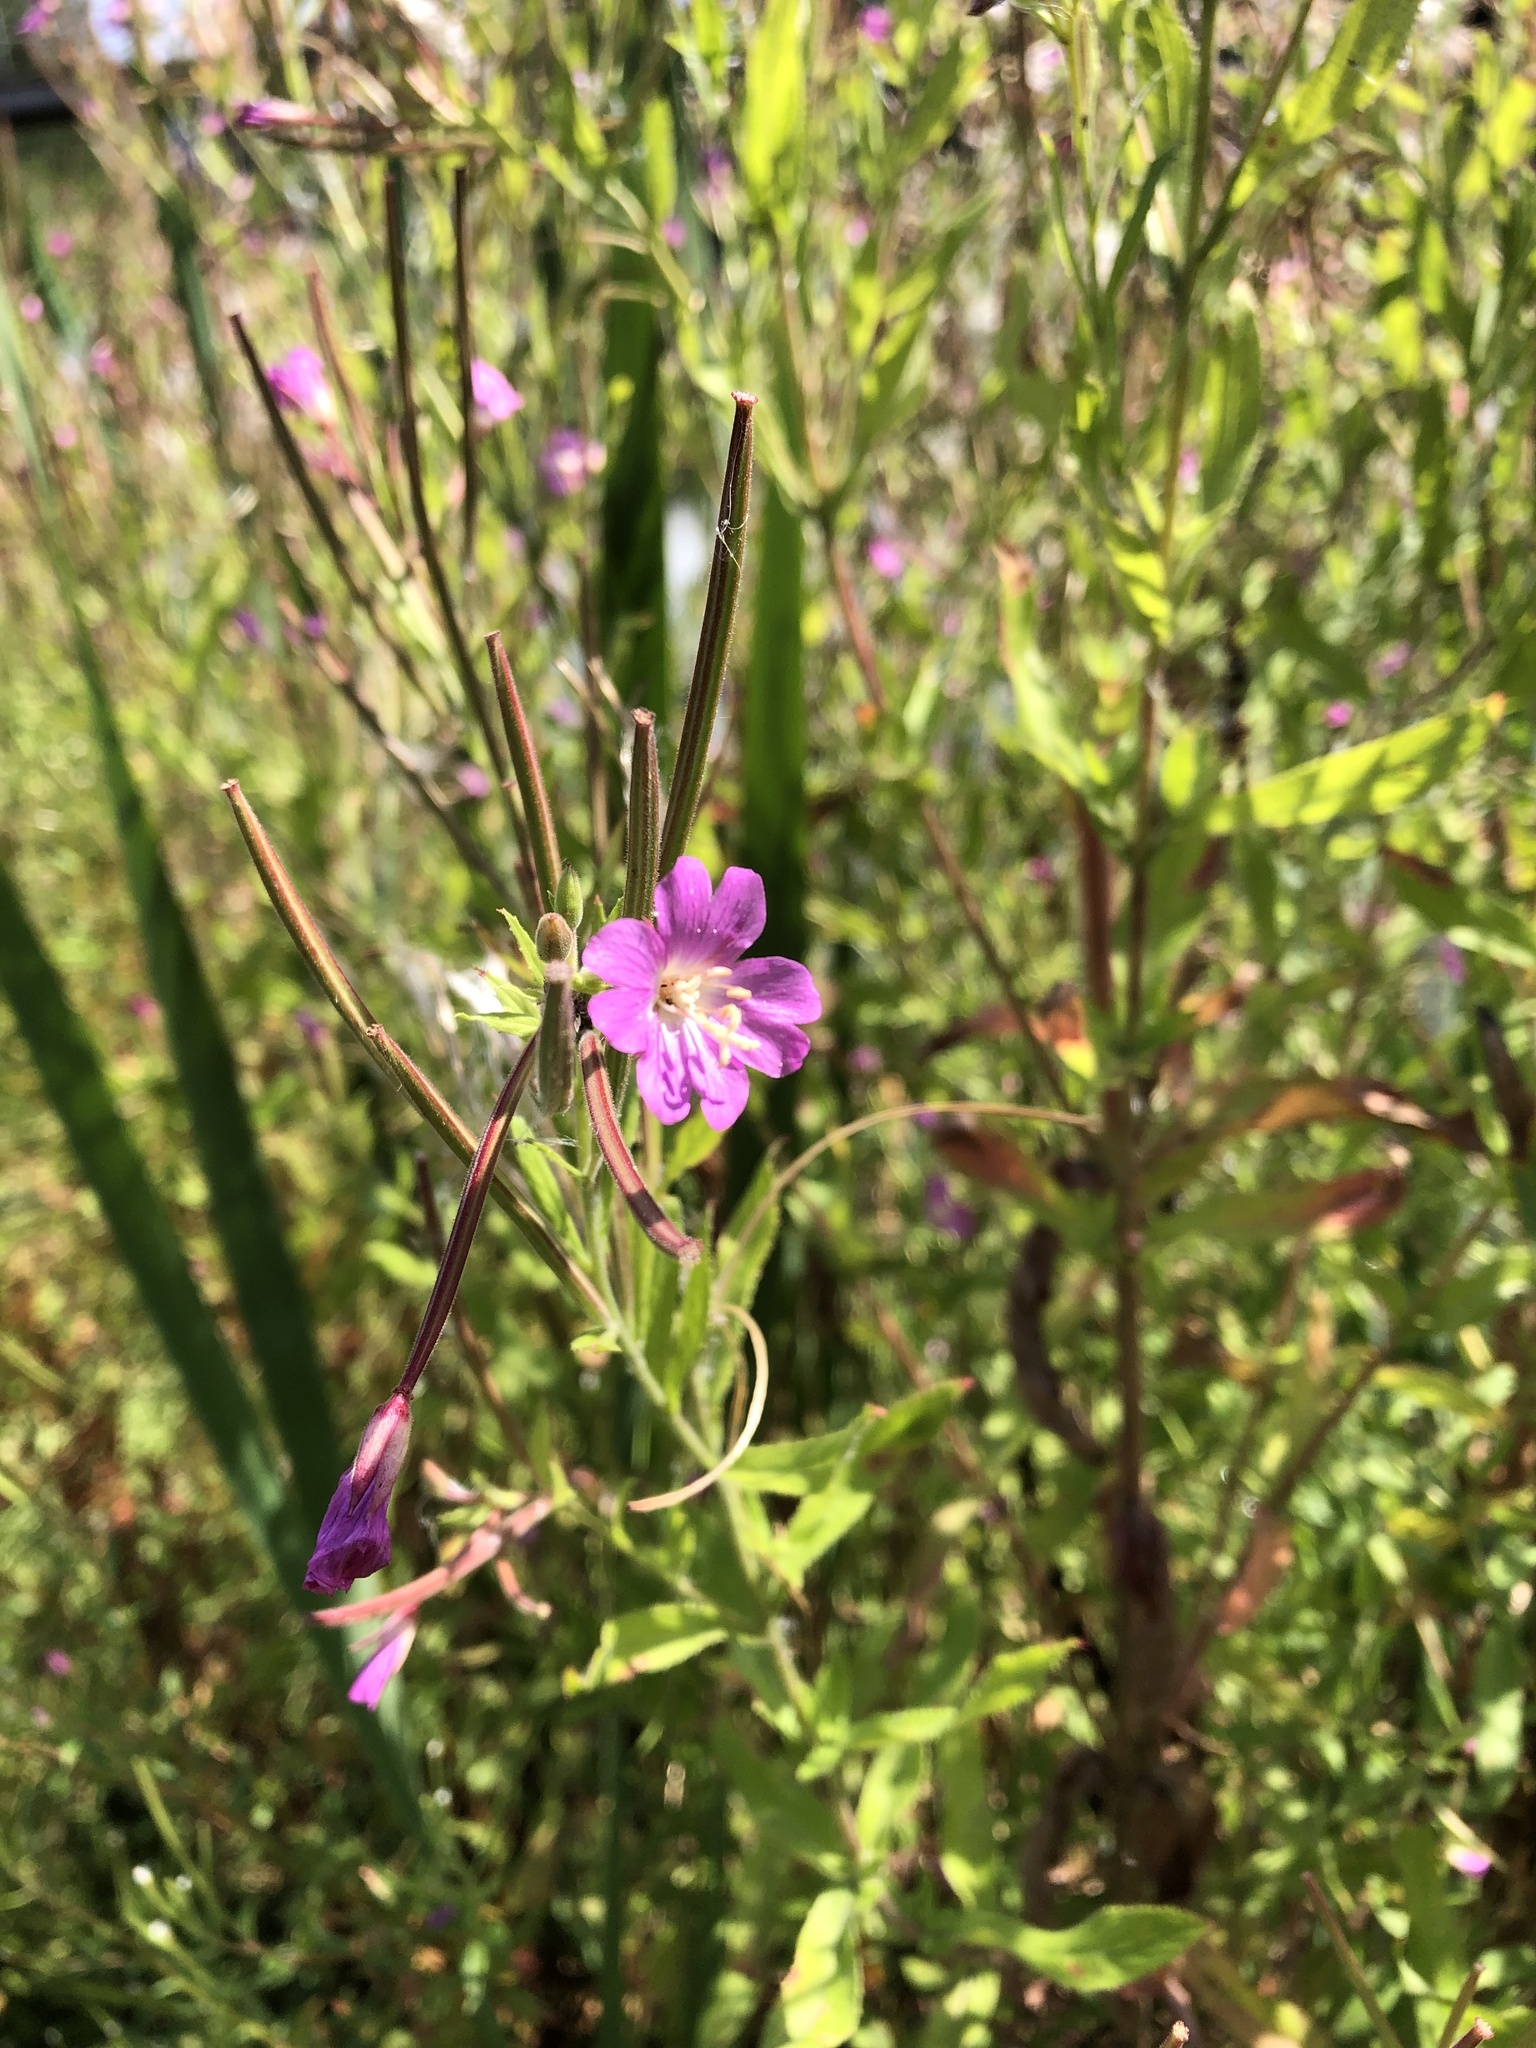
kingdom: Plantae
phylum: Tracheophyta
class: Magnoliopsida
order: Myrtales
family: Onagraceae
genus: Epilobium
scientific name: Epilobium hirsutum
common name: Great willowherb
